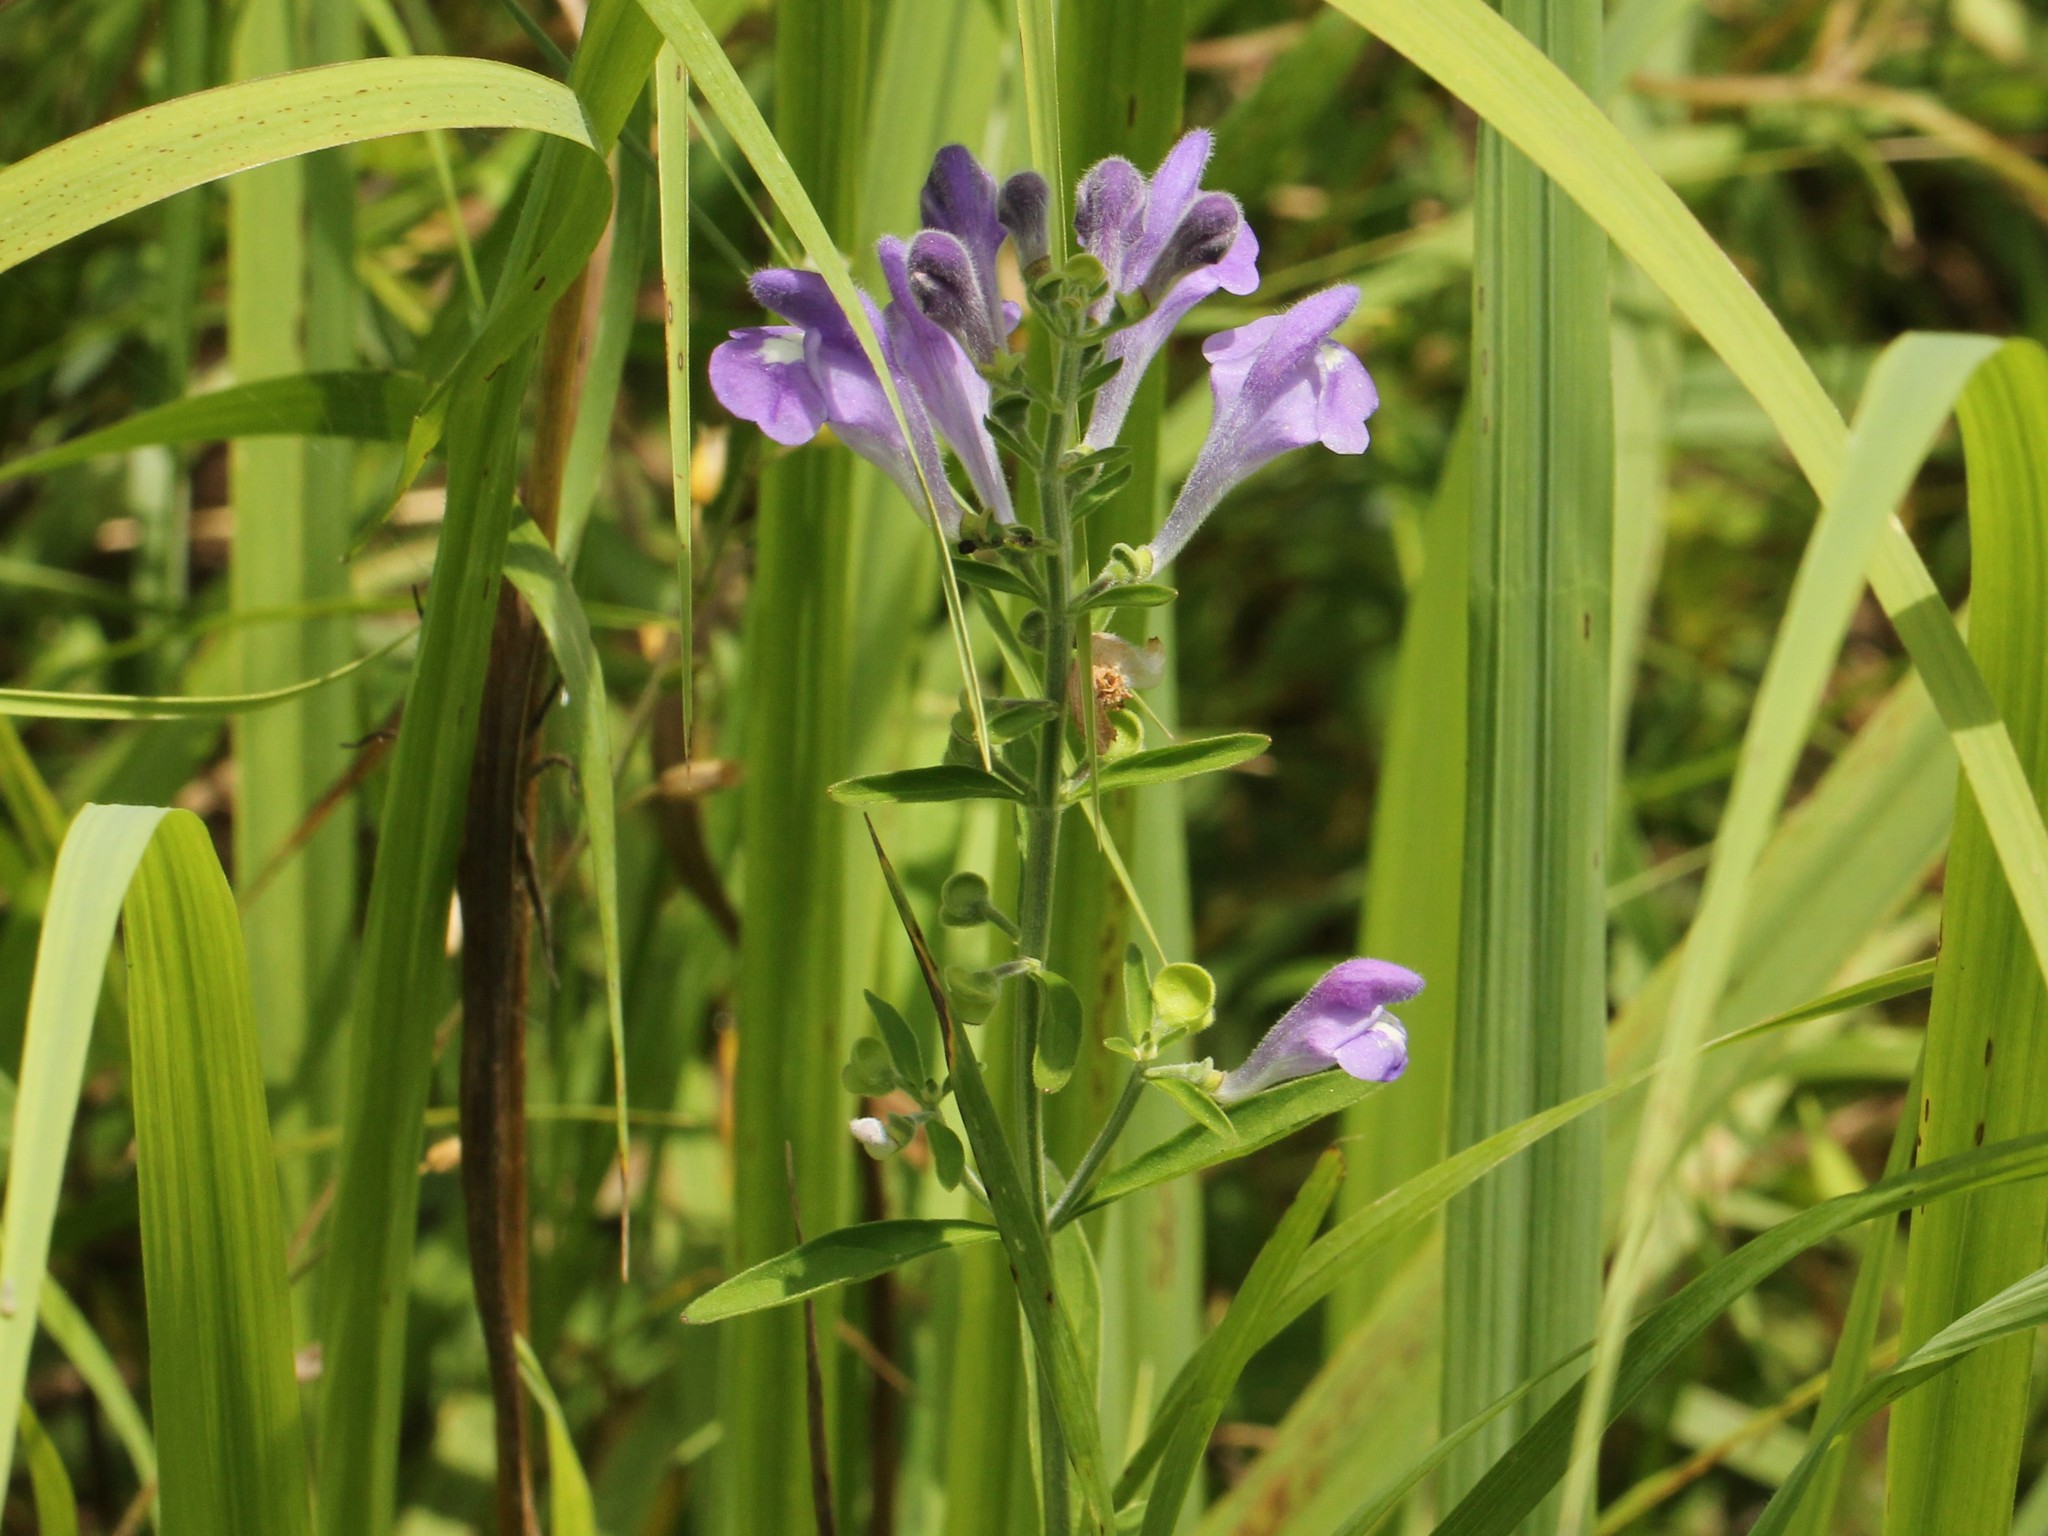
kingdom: Plantae
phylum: Tracheophyta
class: Magnoliopsida
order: Lamiales
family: Lamiaceae
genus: Scutellaria
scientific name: Scutellaria integrifolia
